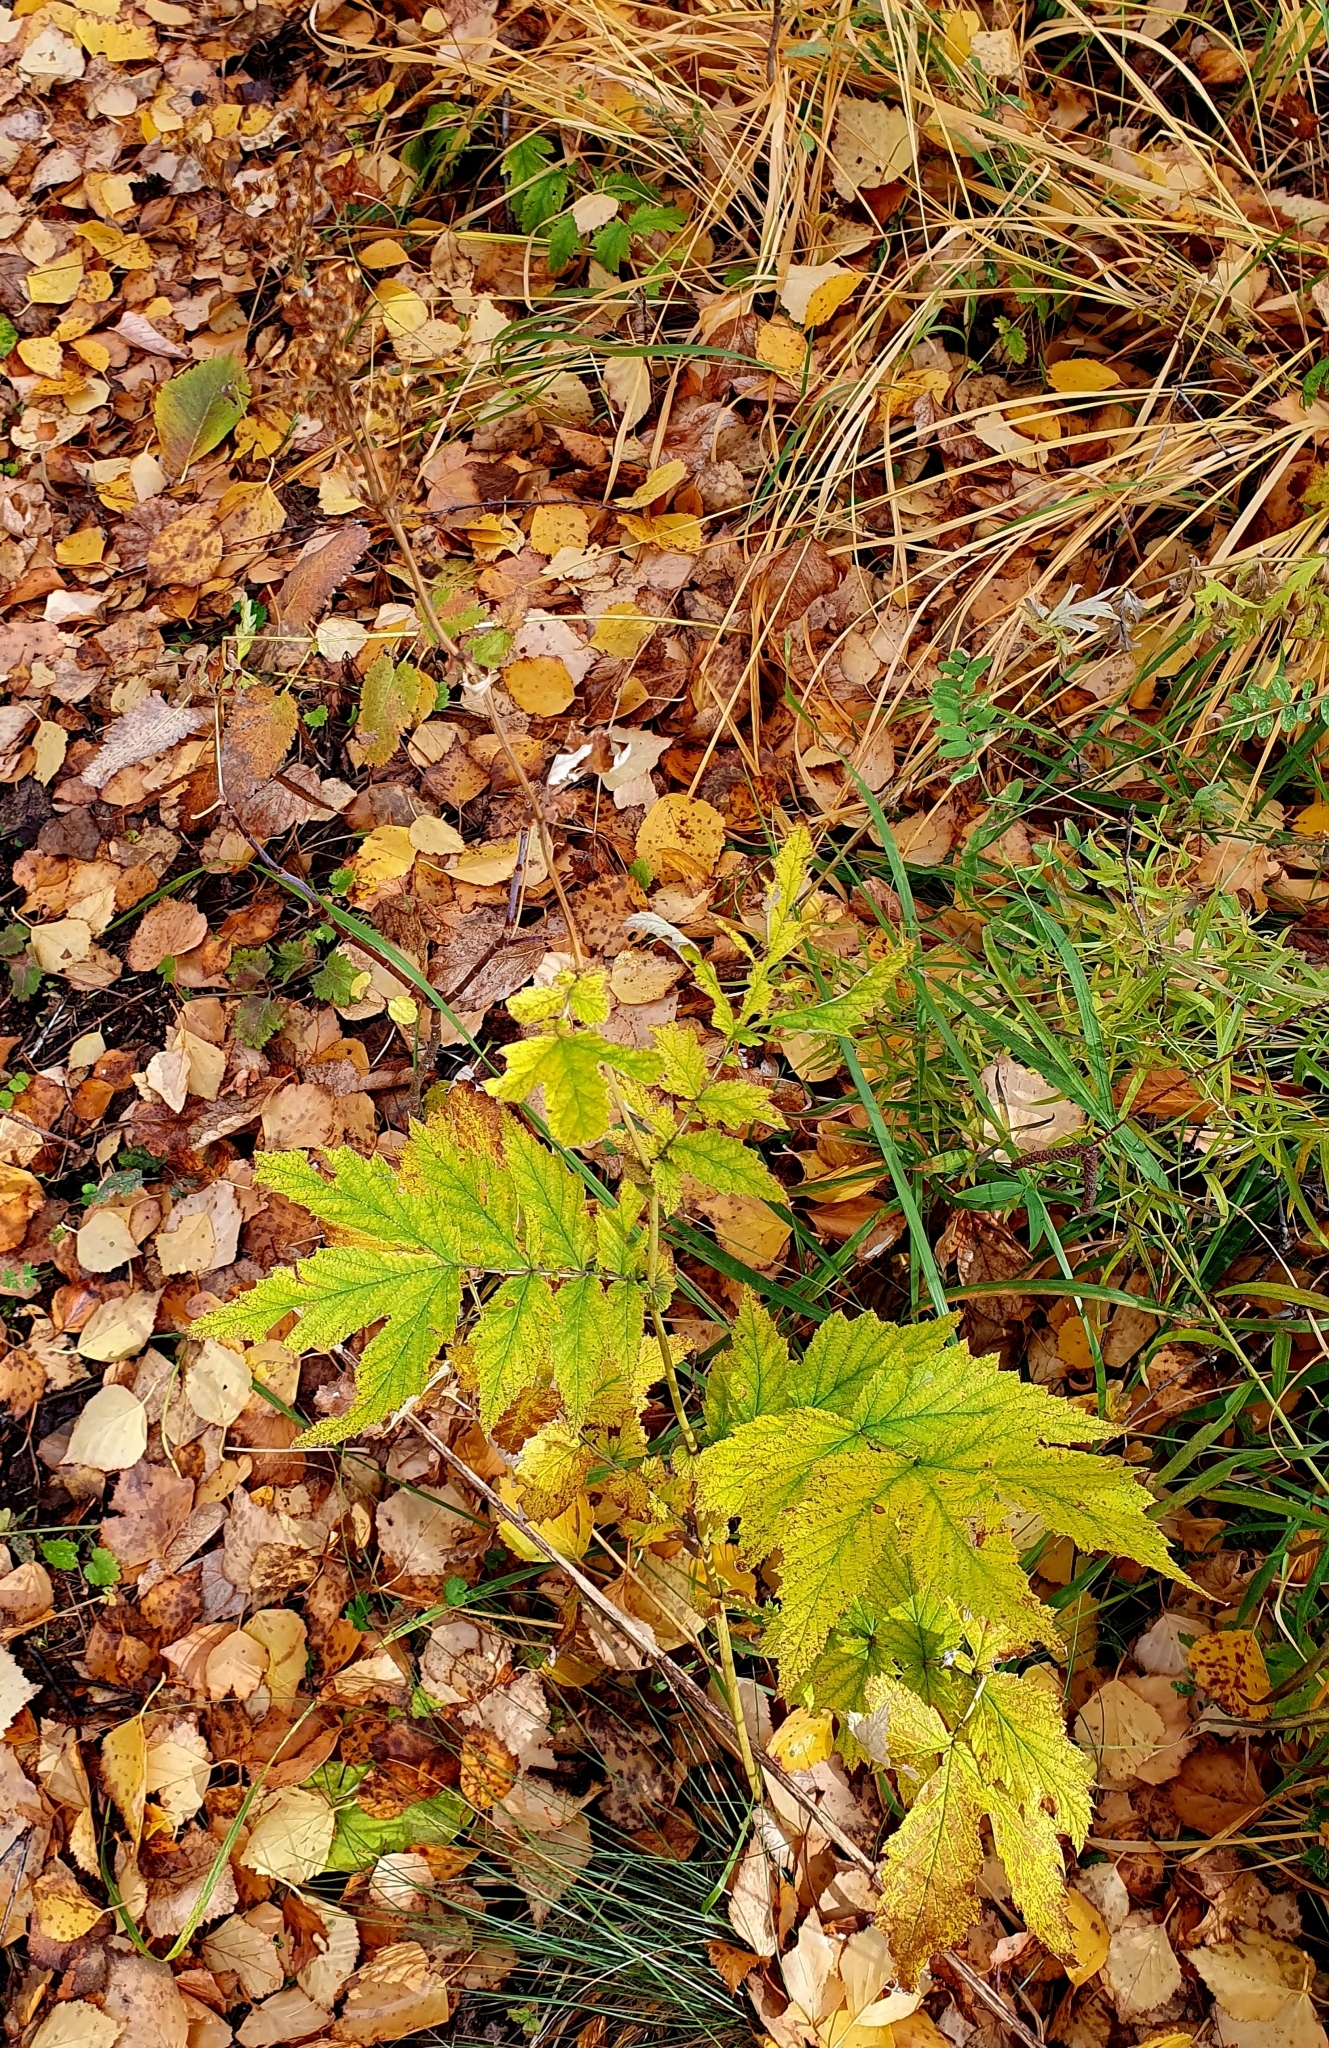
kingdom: Plantae
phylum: Tracheophyta
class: Magnoliopsida
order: Rosales
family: Rosaceae
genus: Filipendula
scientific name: Filipendula ulmaria
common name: Meadowsweet
